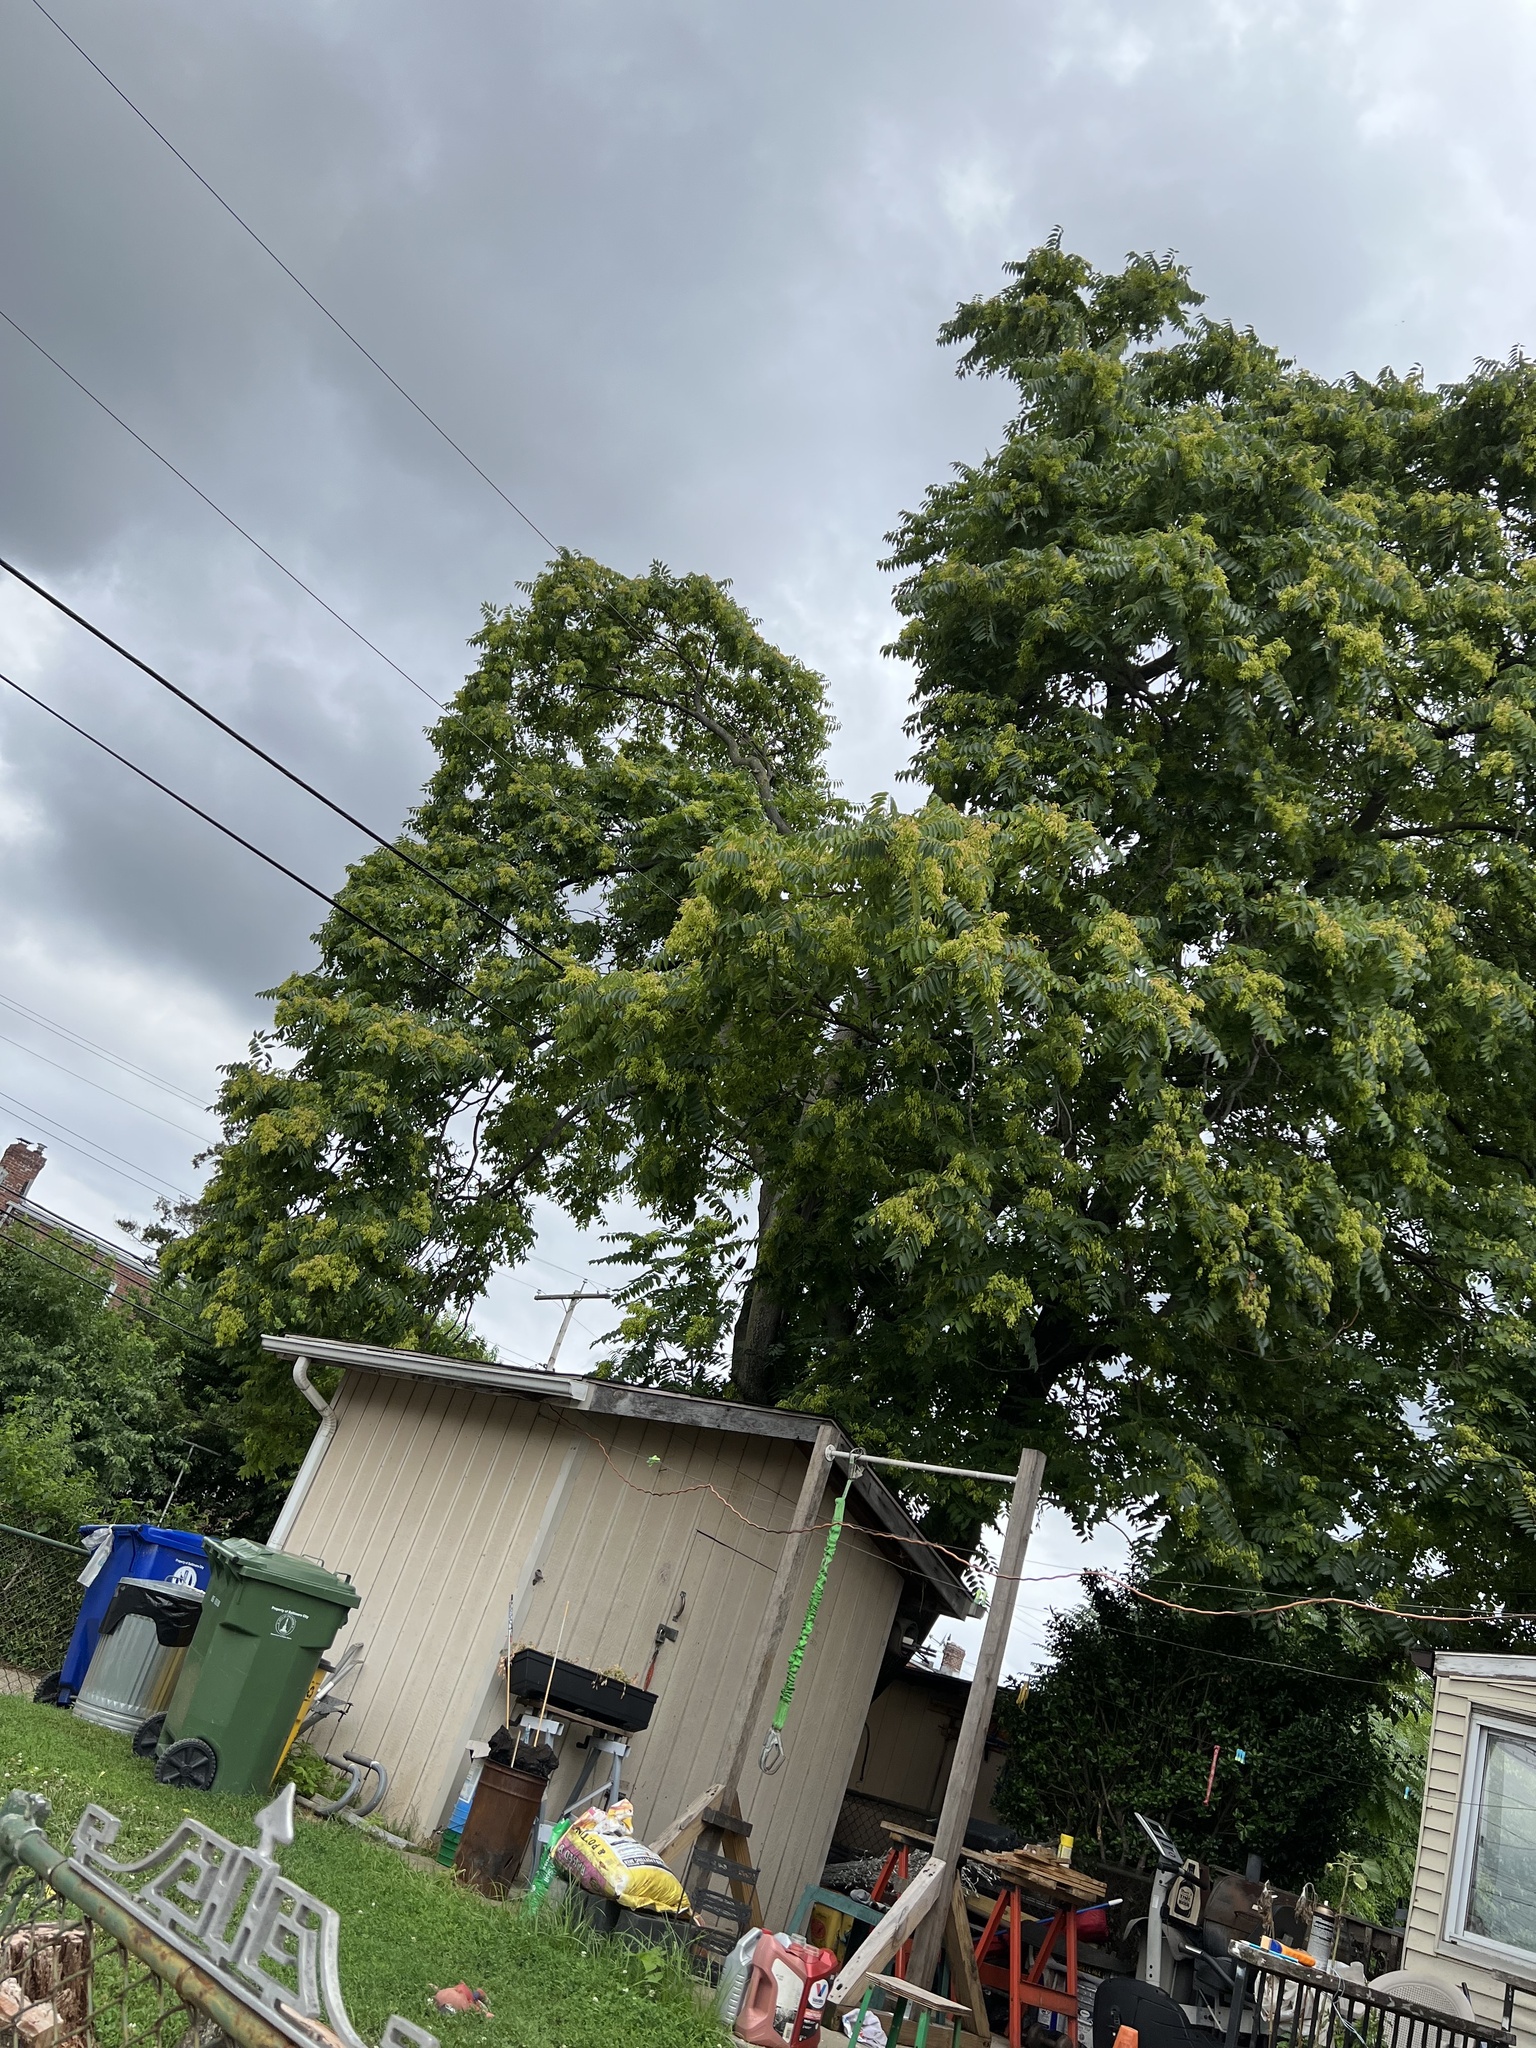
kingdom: Plantae
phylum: Tracheophyta
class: Magnoliopsida
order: Sapindales
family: Simaroubaceae
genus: Ailanthus
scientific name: Ailanthus altissima
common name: Tree-of-heaven
